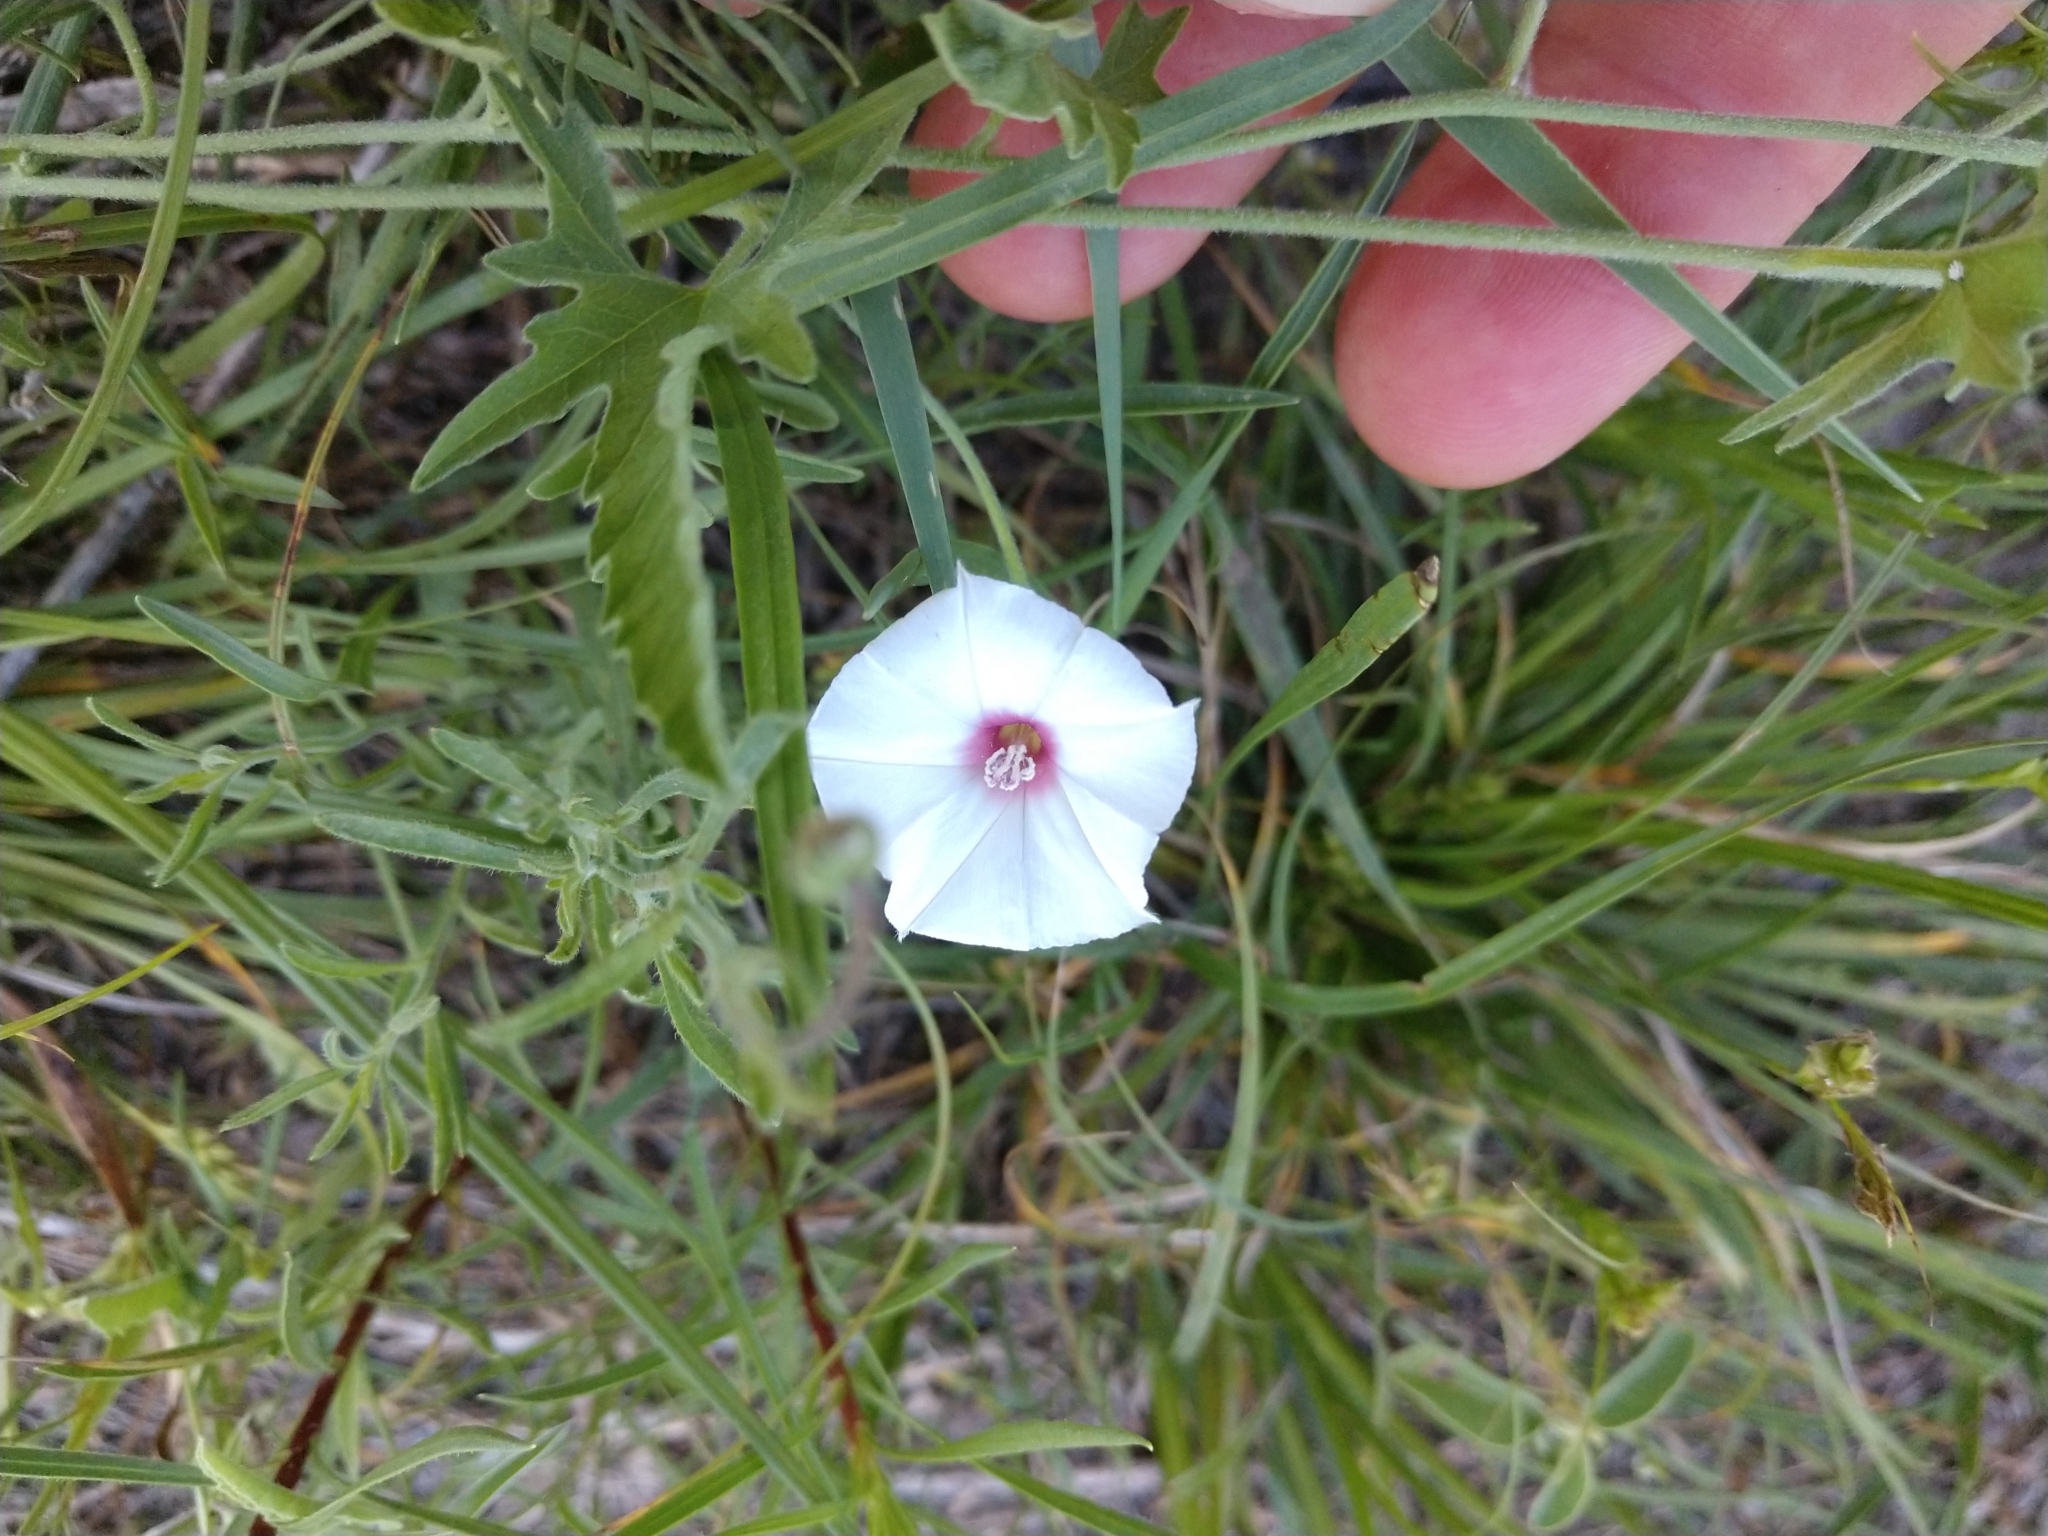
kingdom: Plantae
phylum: Tracheophyta
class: Magnoliopsida
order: Solanales
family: Convolvulaceae
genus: Convolvulus
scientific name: Convolvulus equitans
